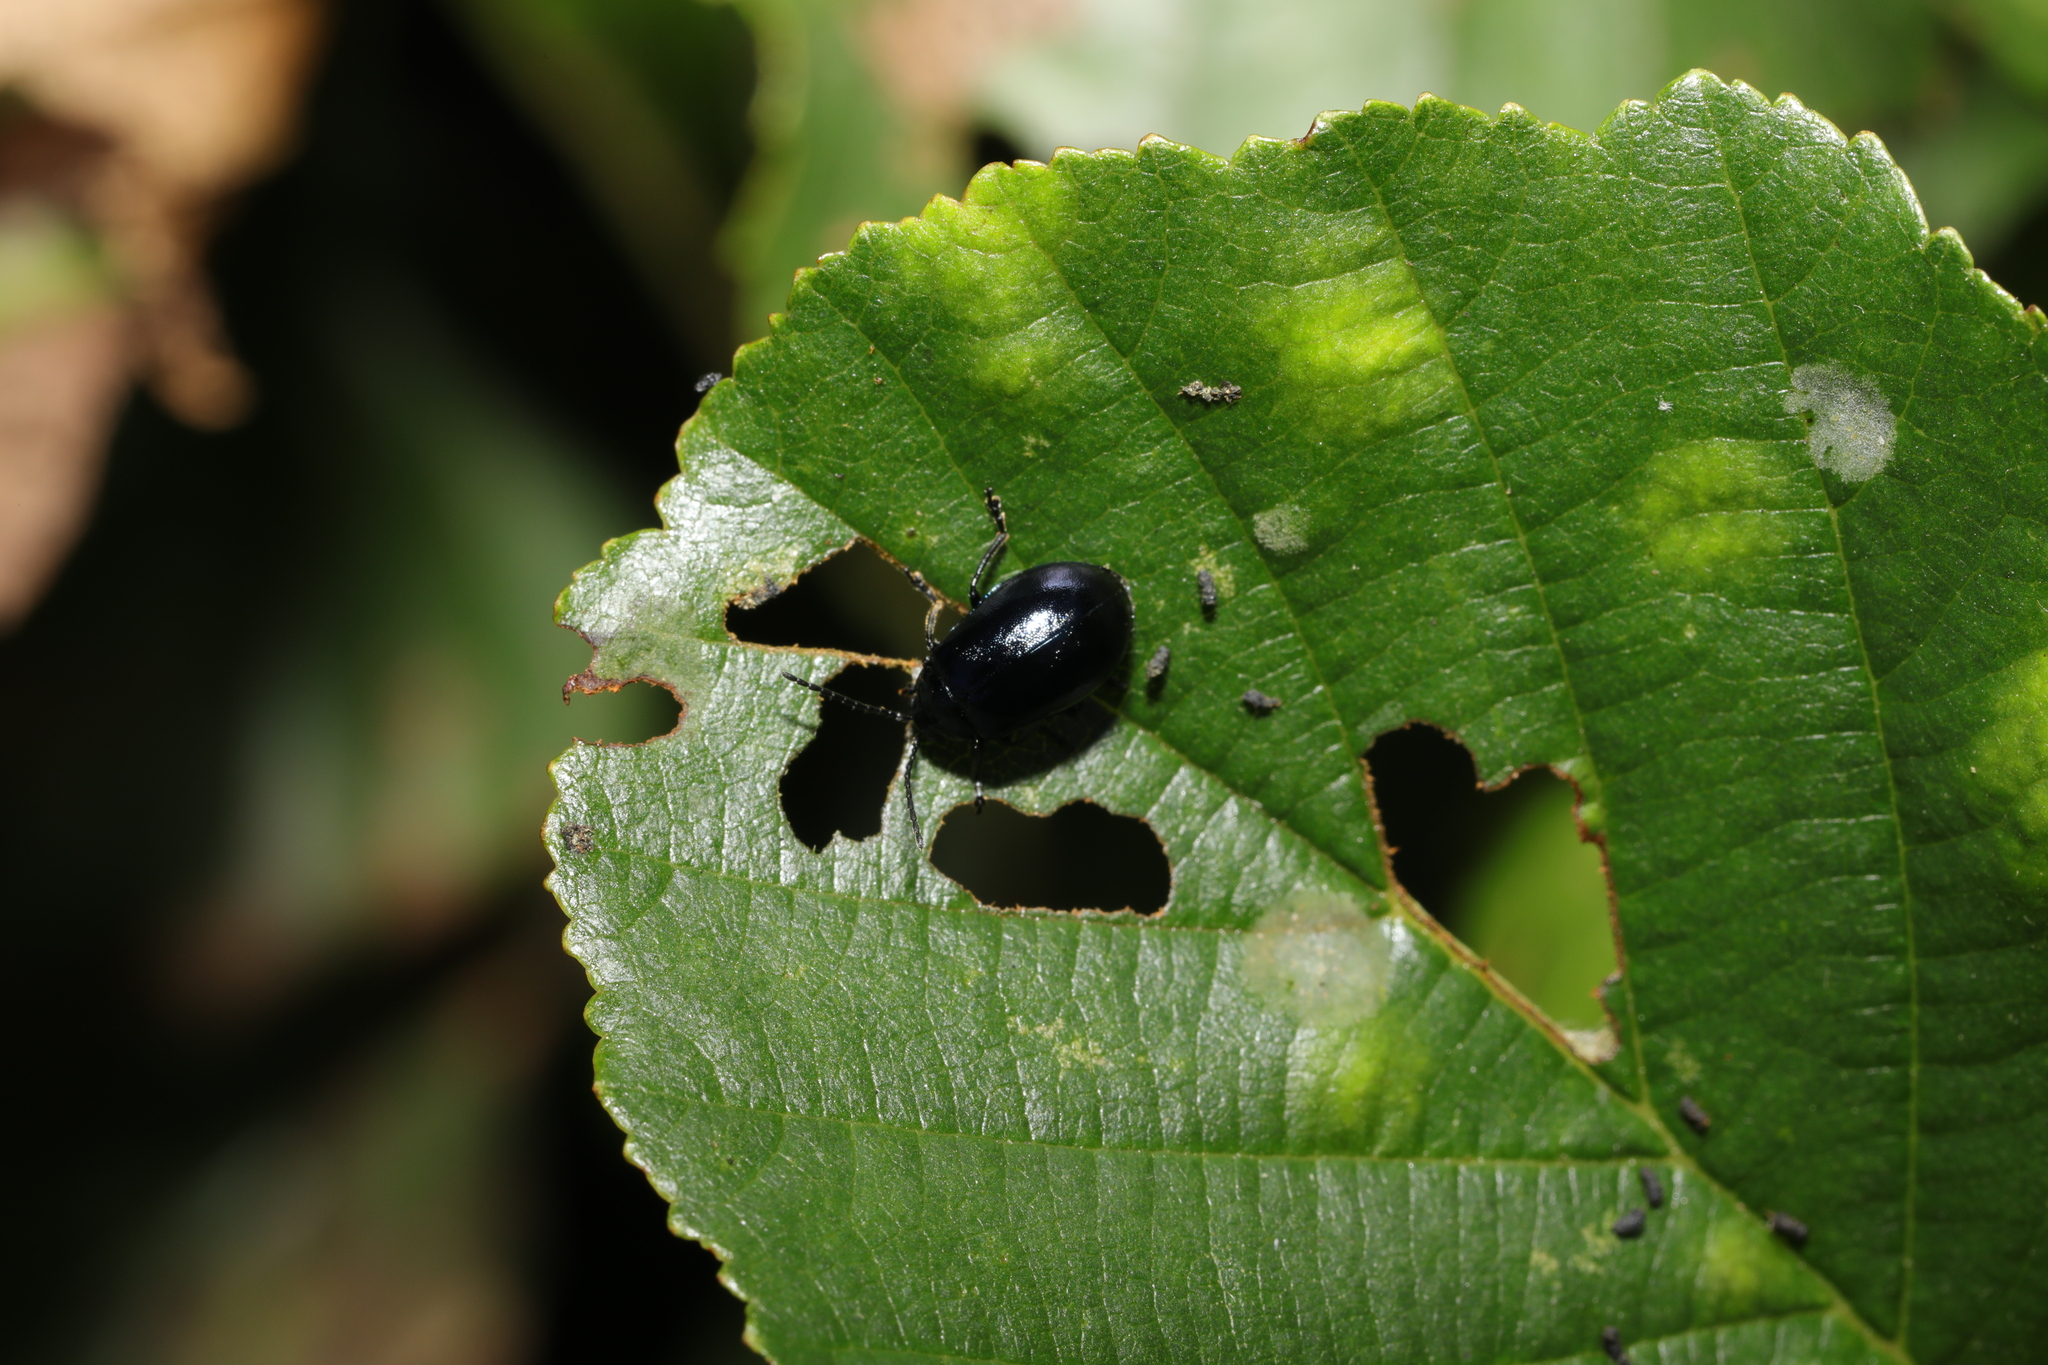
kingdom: Animalia
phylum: Arthropoda
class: Insecta
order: Coleoptera
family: Chrysomelidae
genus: Agelastica
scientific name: Agelastica alni
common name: Alder leaf beetle
